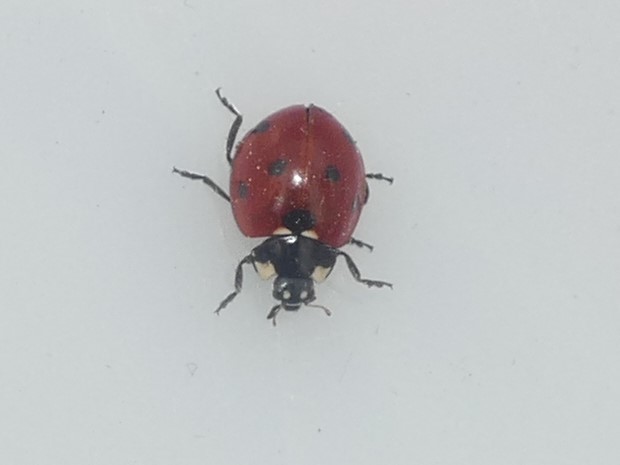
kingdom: Animalia
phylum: Arthropoda
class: Insecta
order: Coleoptera
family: Coccinellidae
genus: Coccinella
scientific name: Coccinella septempunctata
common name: Sevenspotted lady beetle
